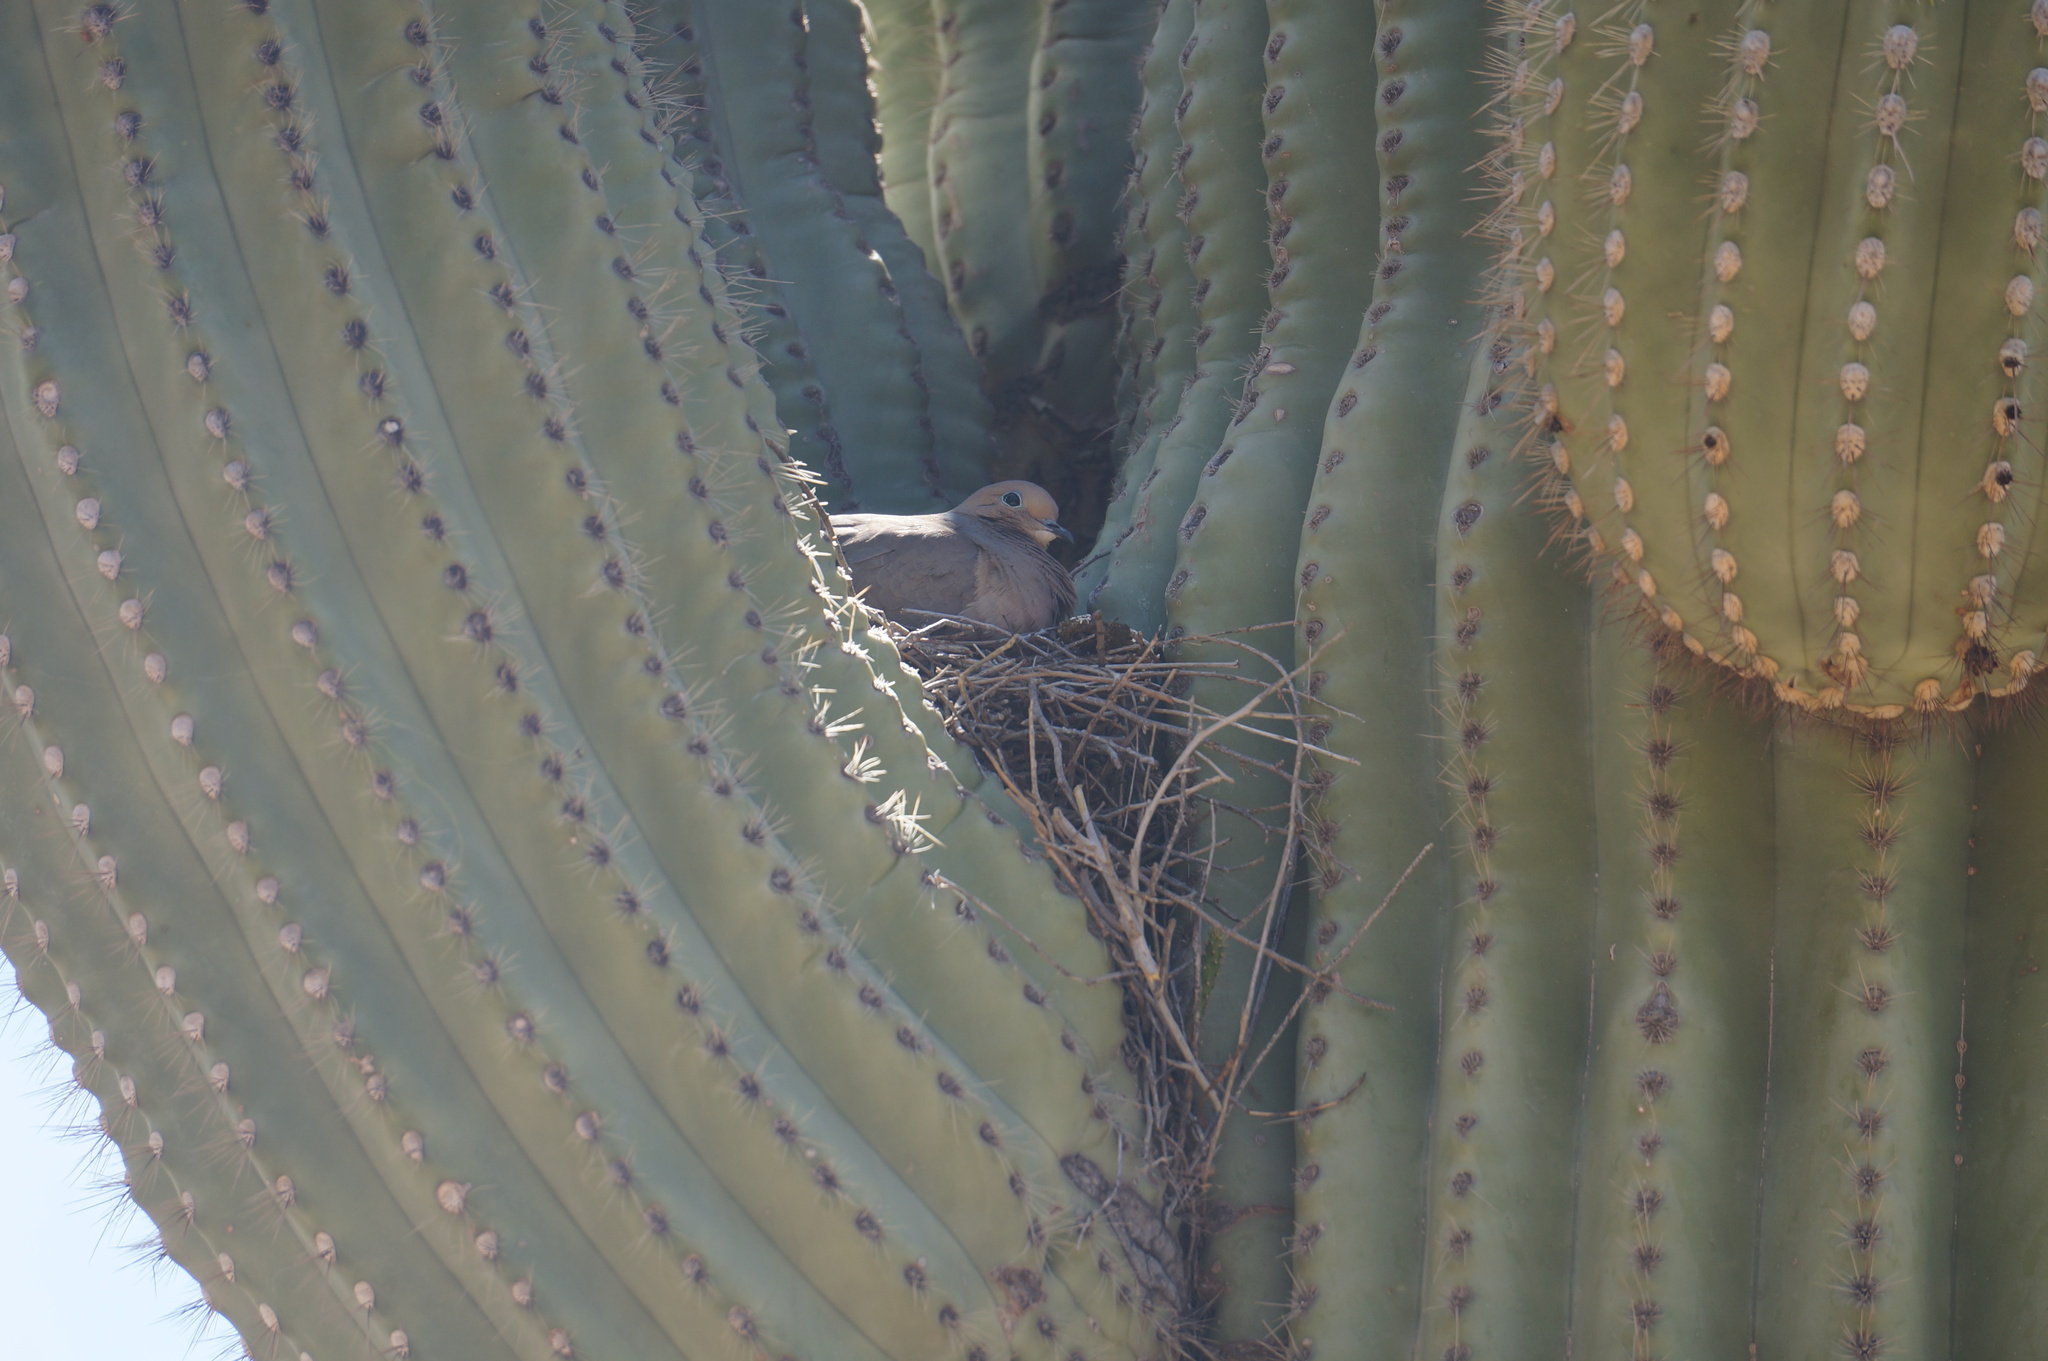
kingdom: Animalia
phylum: Chordata
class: Aves
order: Columbiformes
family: Columbidae
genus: Zenaida
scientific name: Zenaida macroura
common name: Mourning dove
